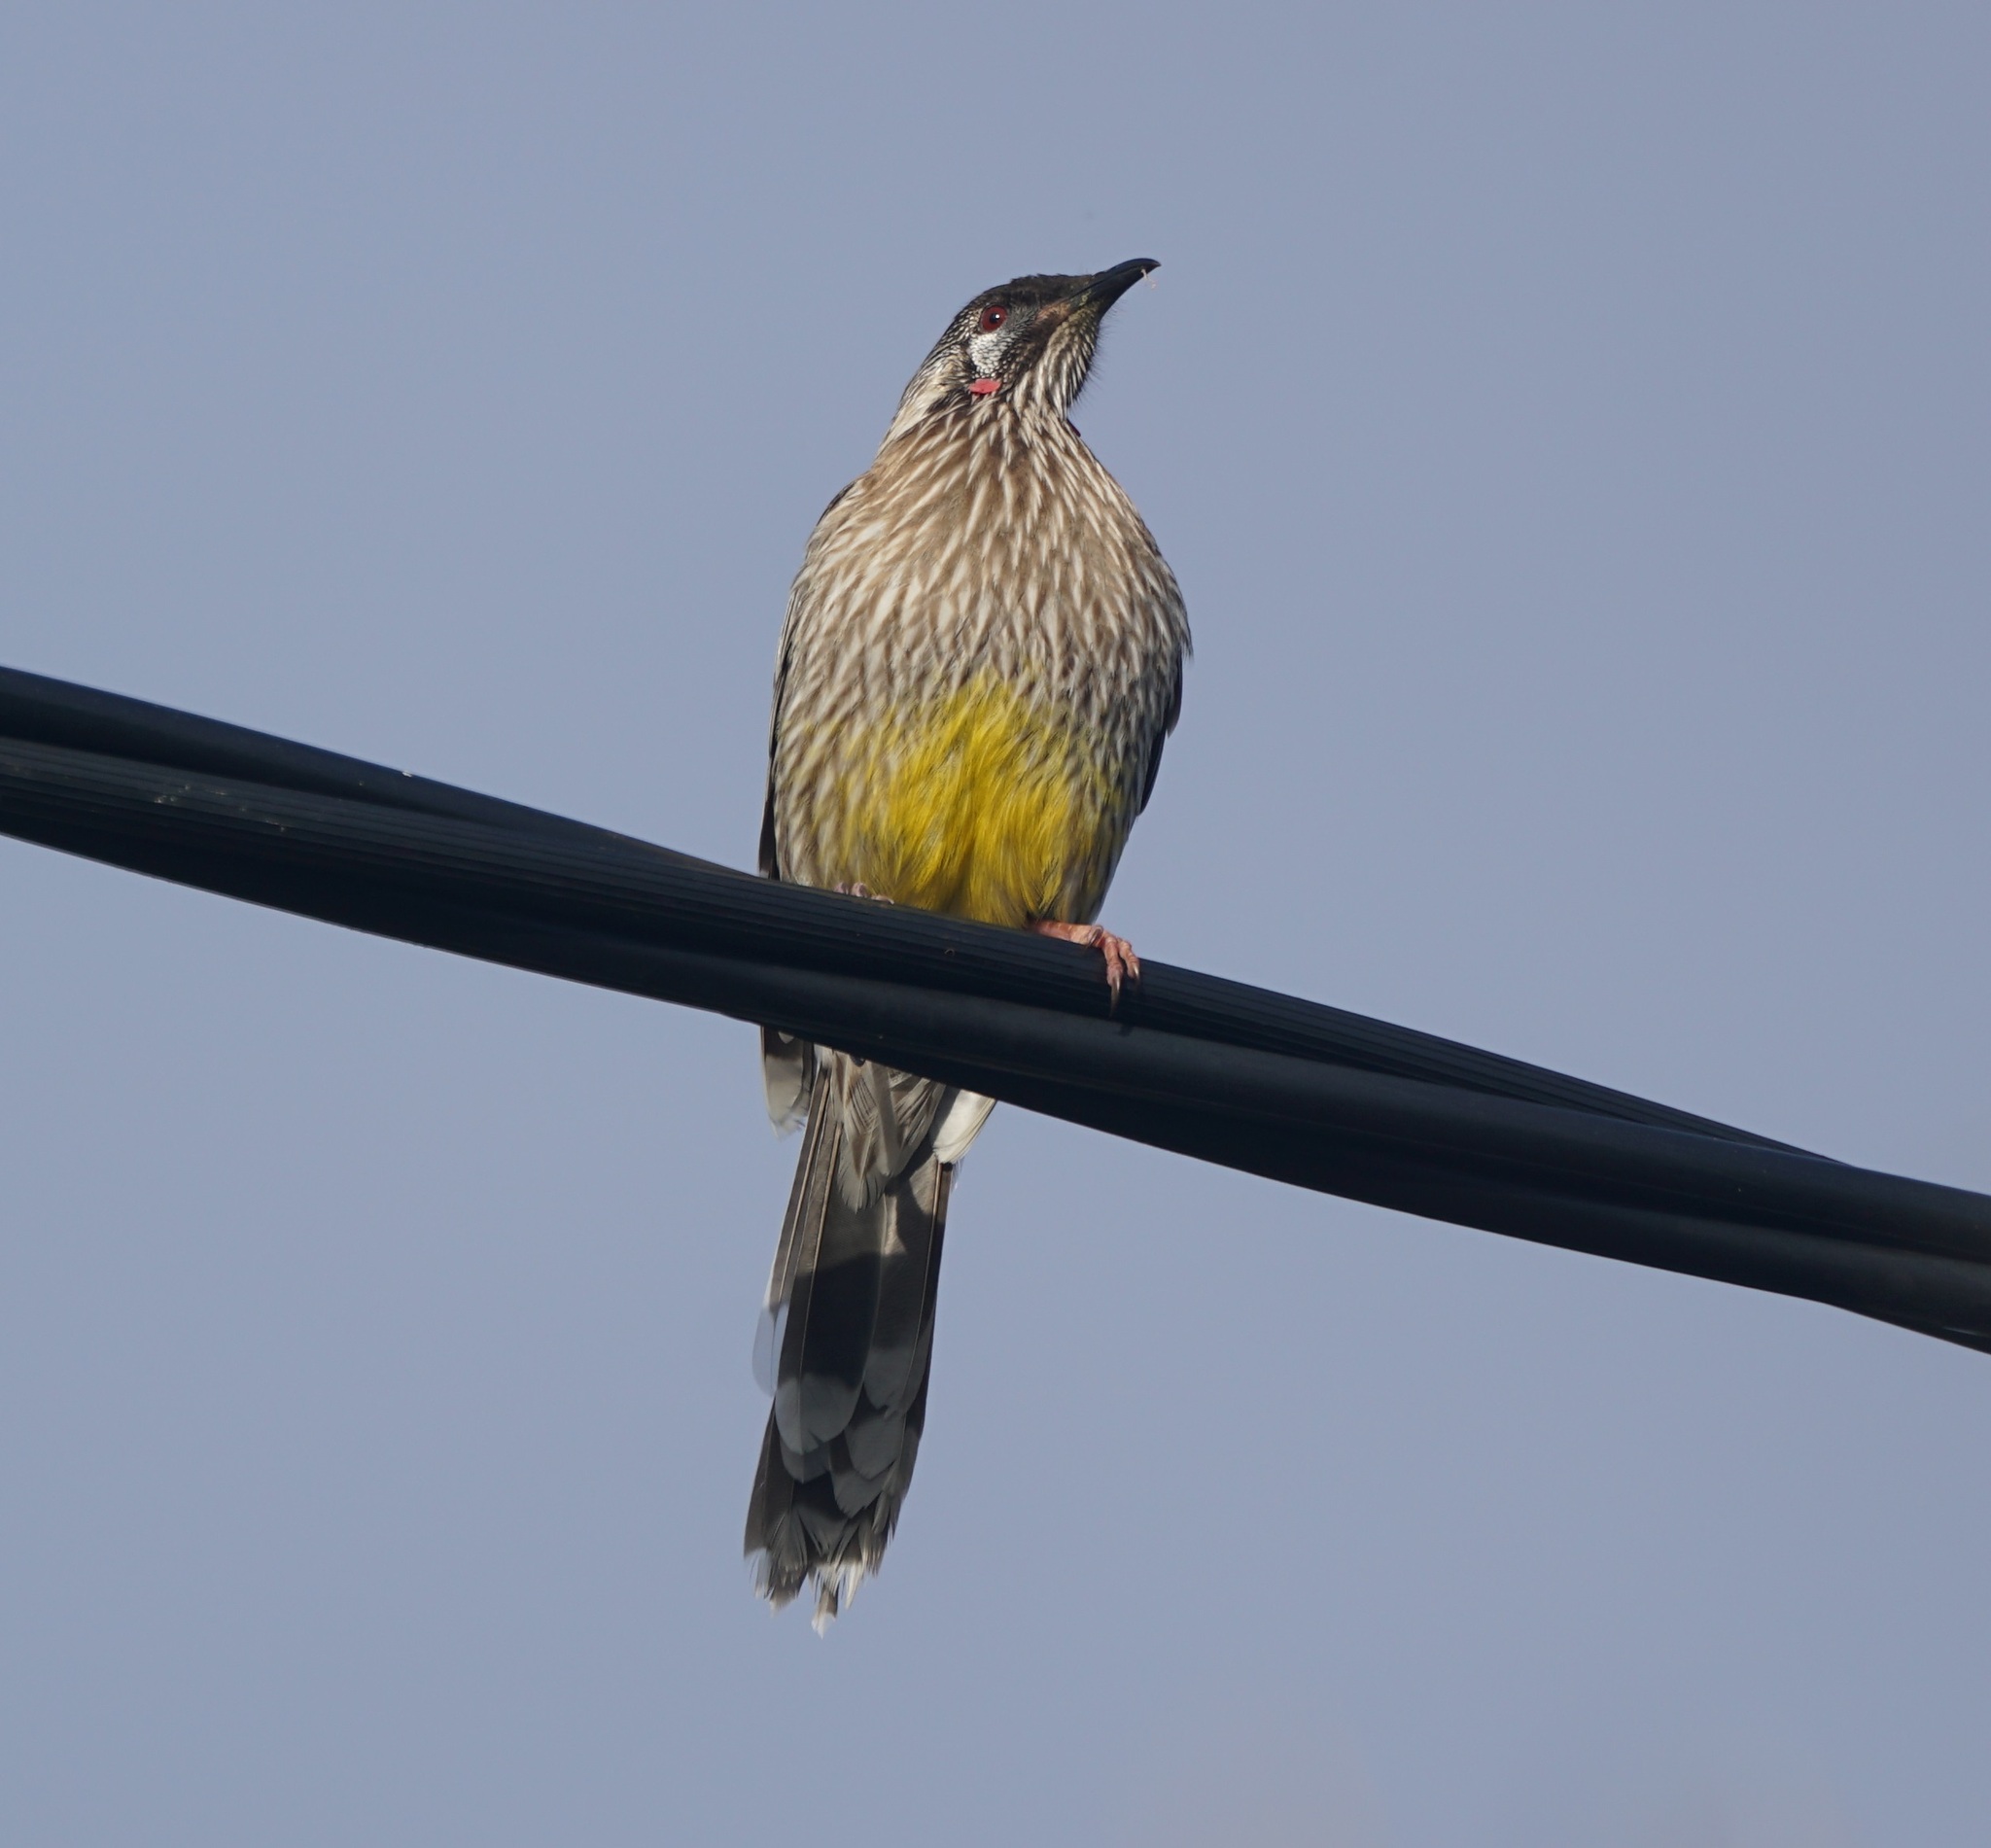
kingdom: Animalia
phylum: Chordata
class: Aves
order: Passeriformes
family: Meliphagidae
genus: Anthochaera
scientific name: Anthochaera carunculata
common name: Red wattlebird
